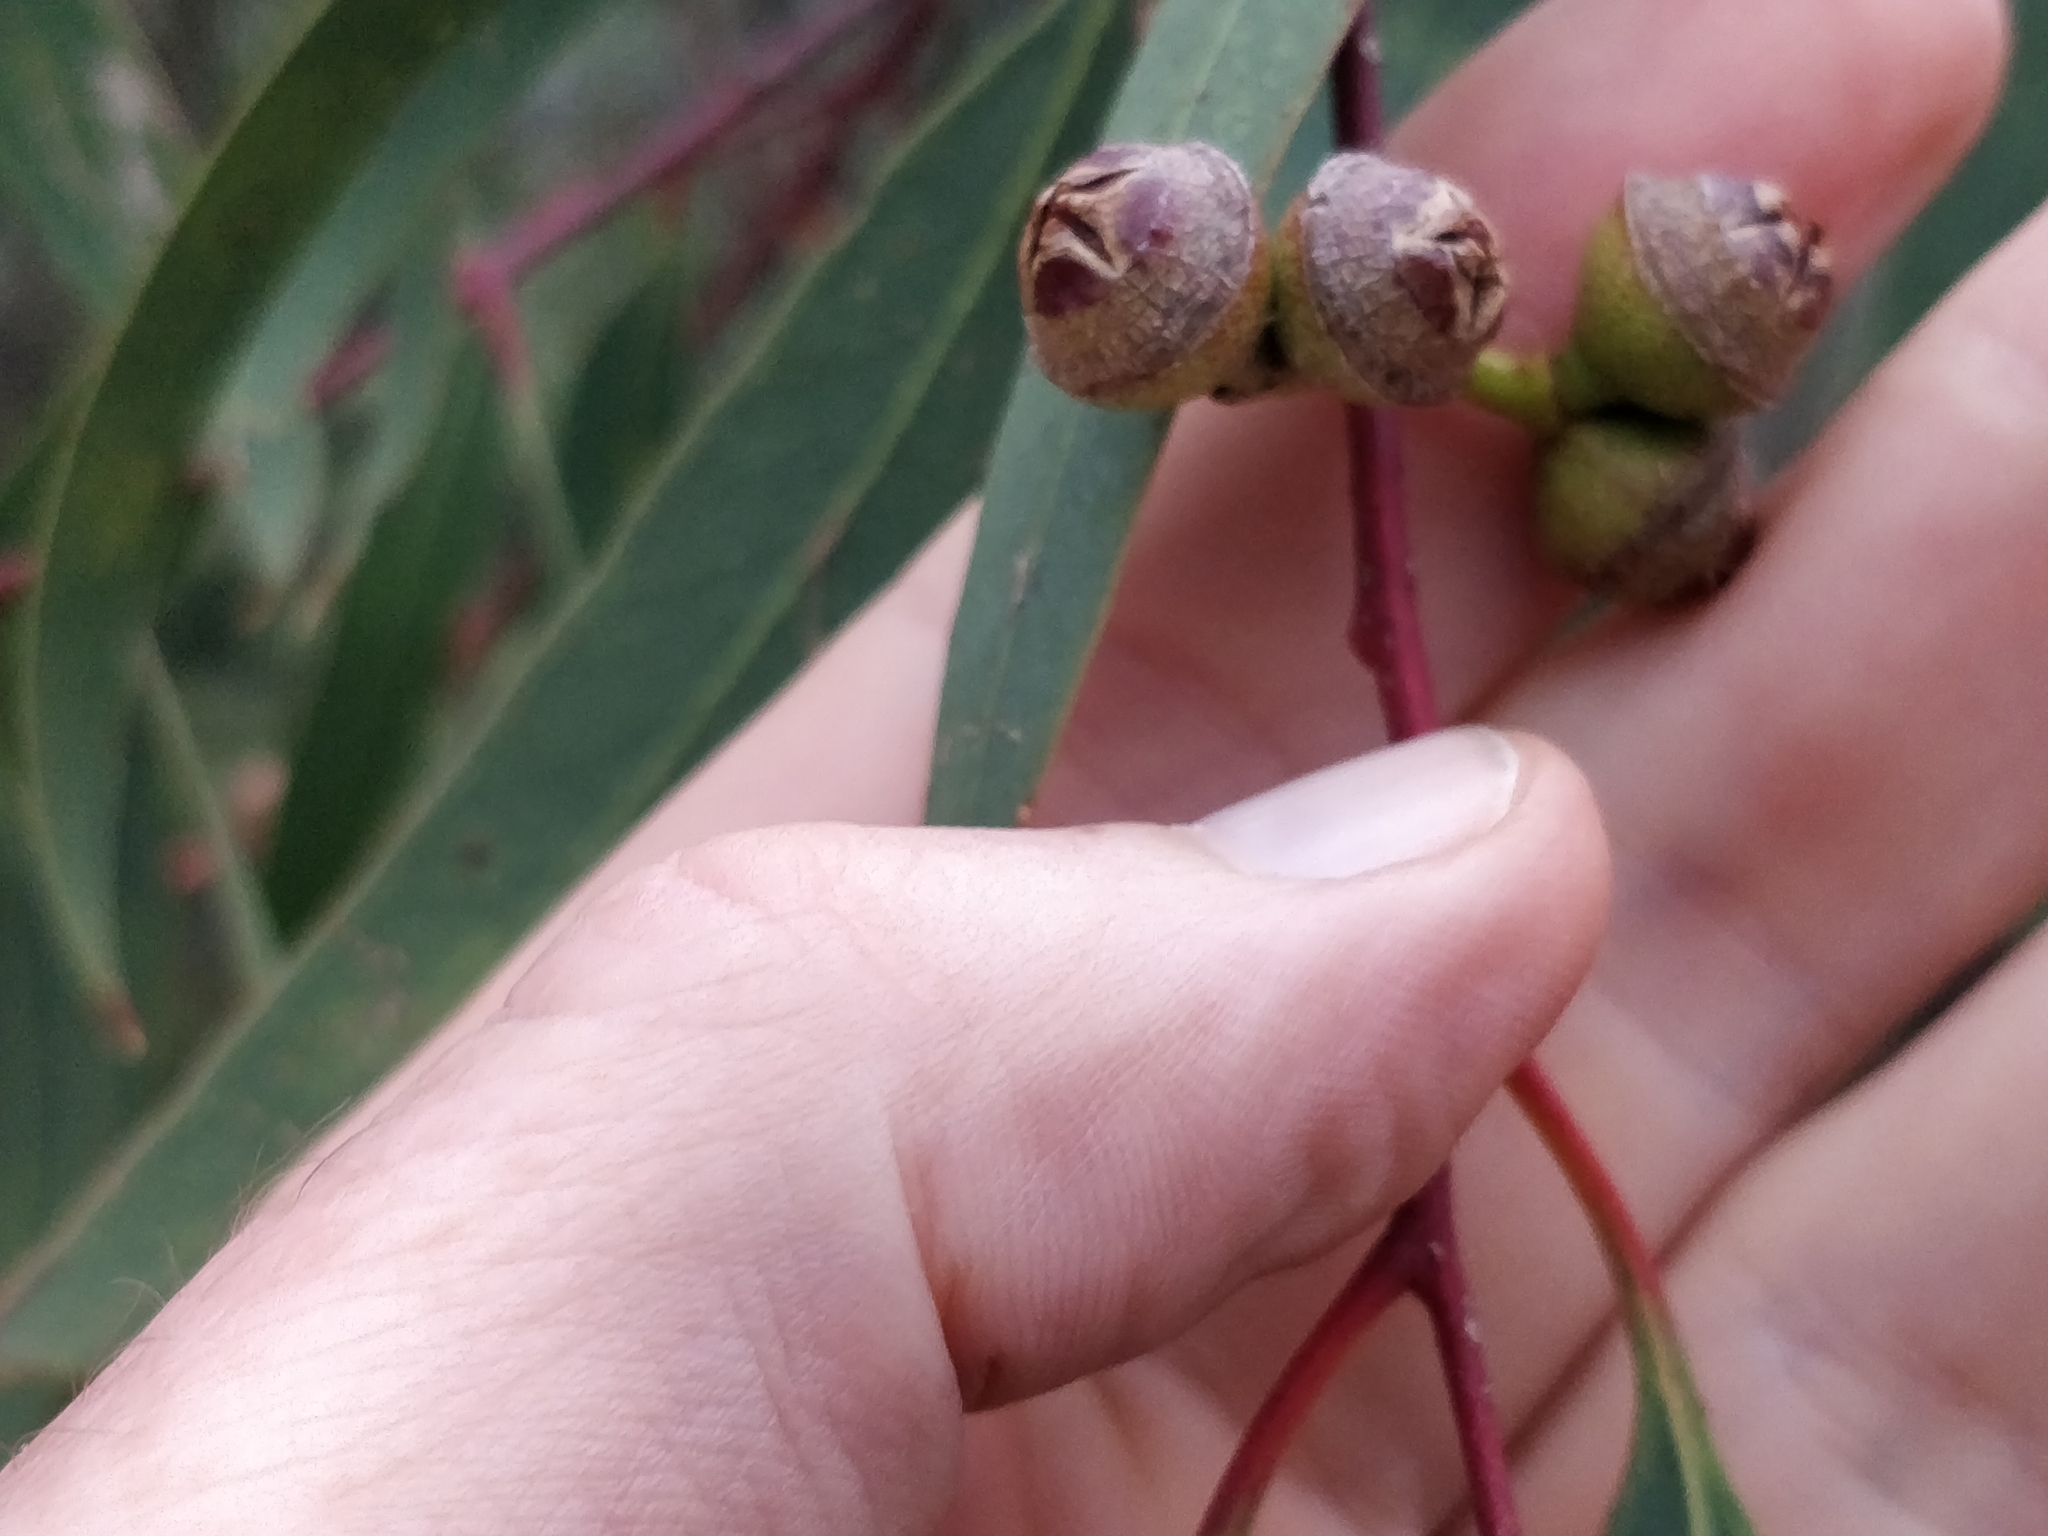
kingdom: Plantae
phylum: Tracheophyta
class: Magnoliopsida
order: Myrtales
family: Myrtaceae
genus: Eucalyptus
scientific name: Eucalyptus morrisii
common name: Grey mallee
